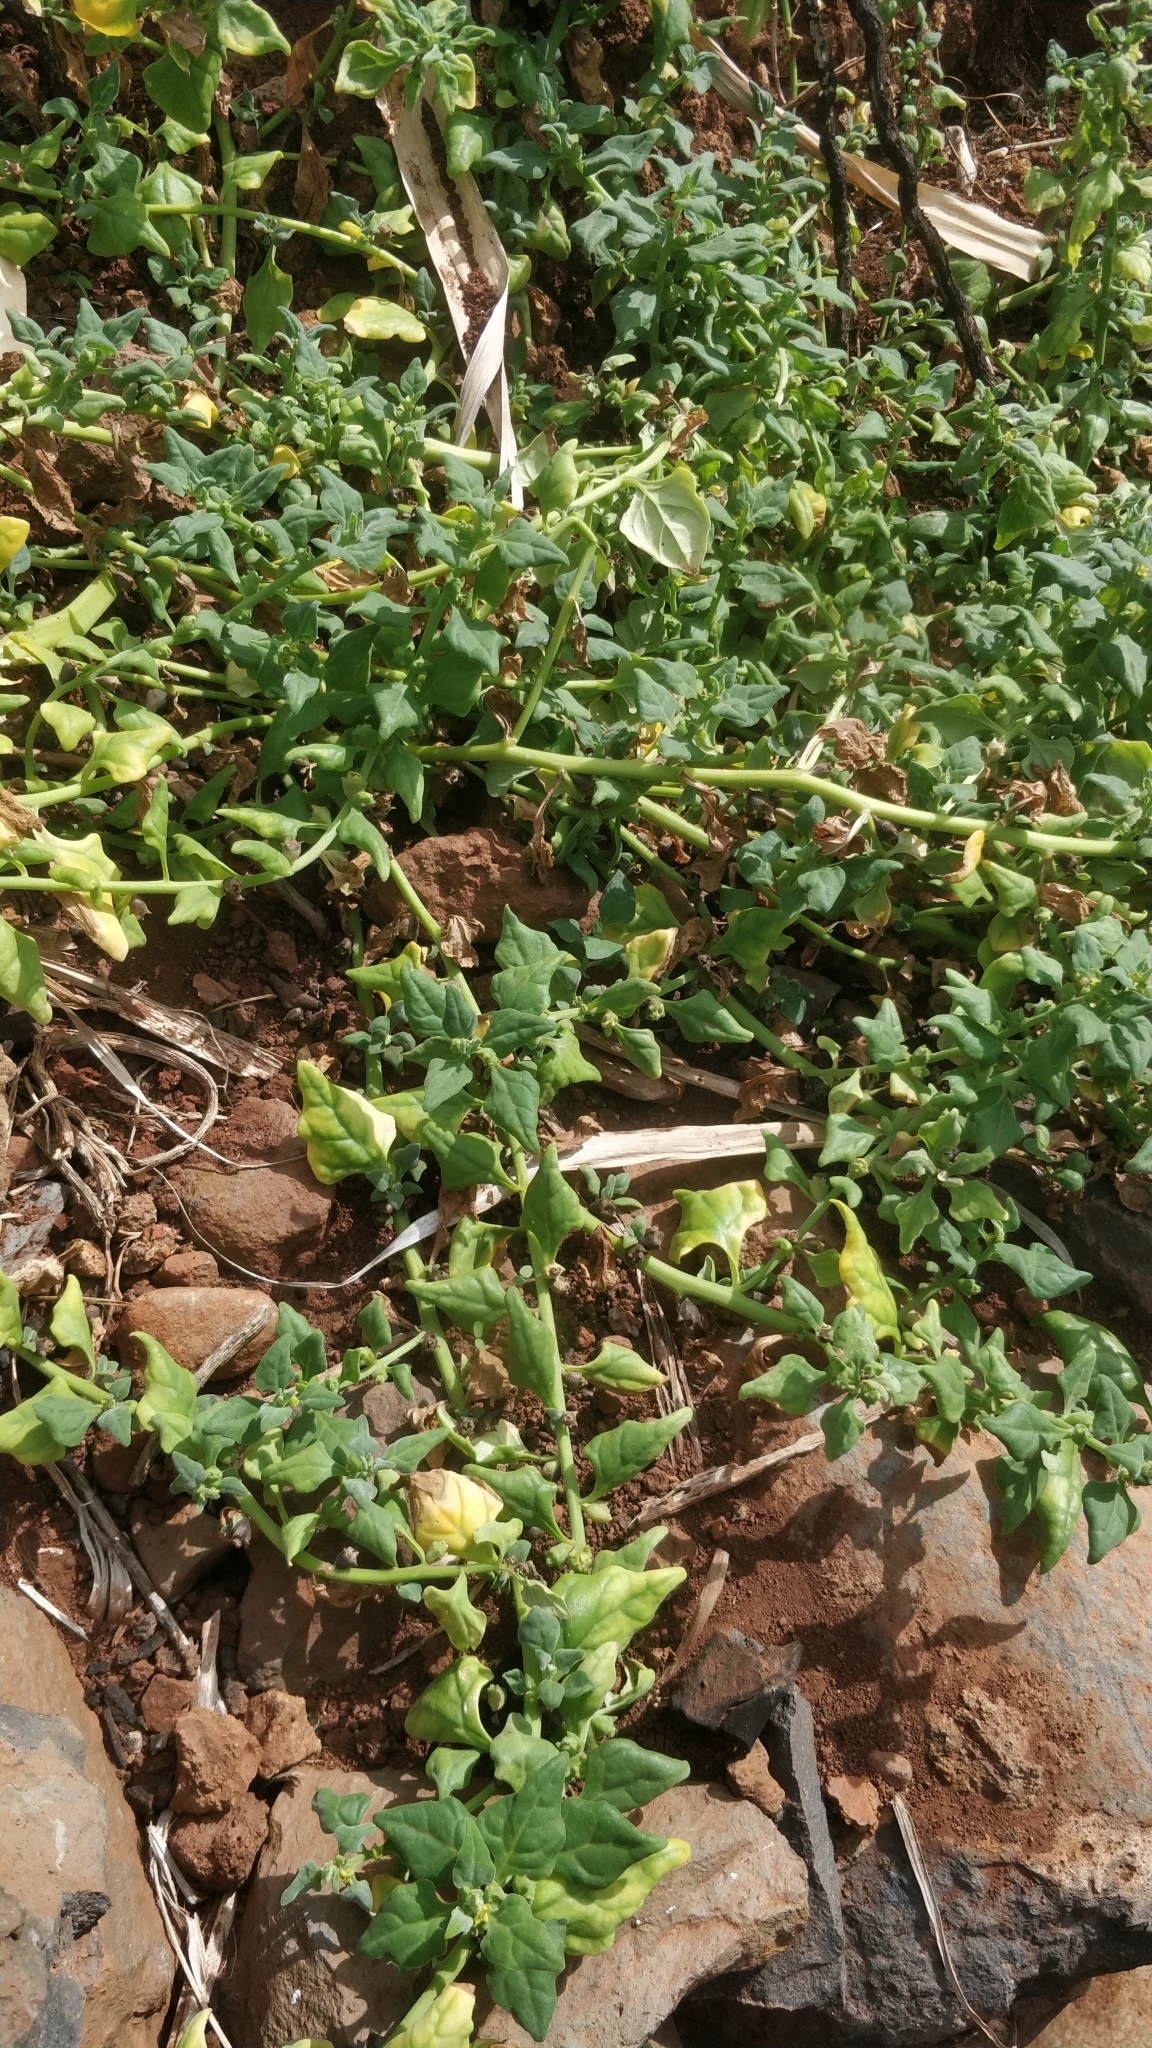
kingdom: Plantae
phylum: Tracheophyta
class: Magnoliopsida
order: Caryophyllales
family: Aizoaceae
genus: Tetragonia
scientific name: Tetragonia tetragonoides
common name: New zealand-spinach
